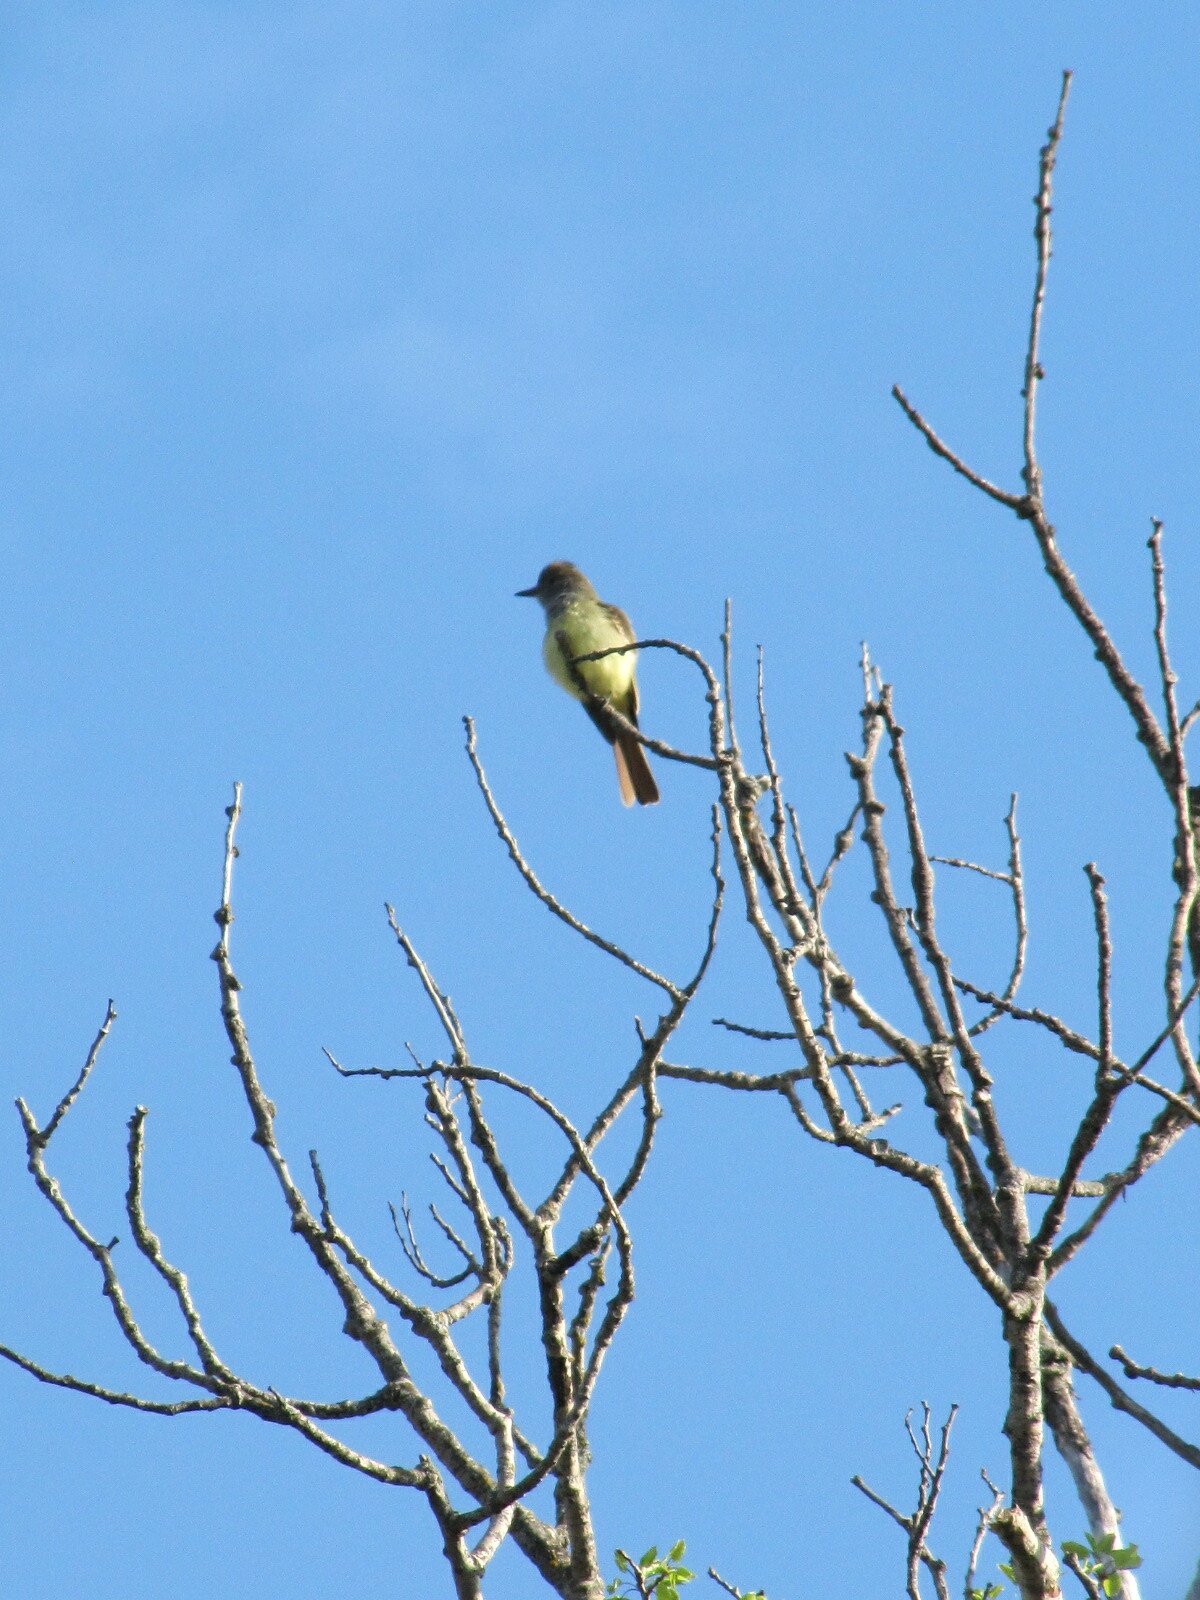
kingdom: Animalia
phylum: Chordata
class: Aves
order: Passeriformes
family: Tyrannidae
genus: Myiarchus
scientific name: Myiarchus crinitus
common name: Great crested flycatcher
